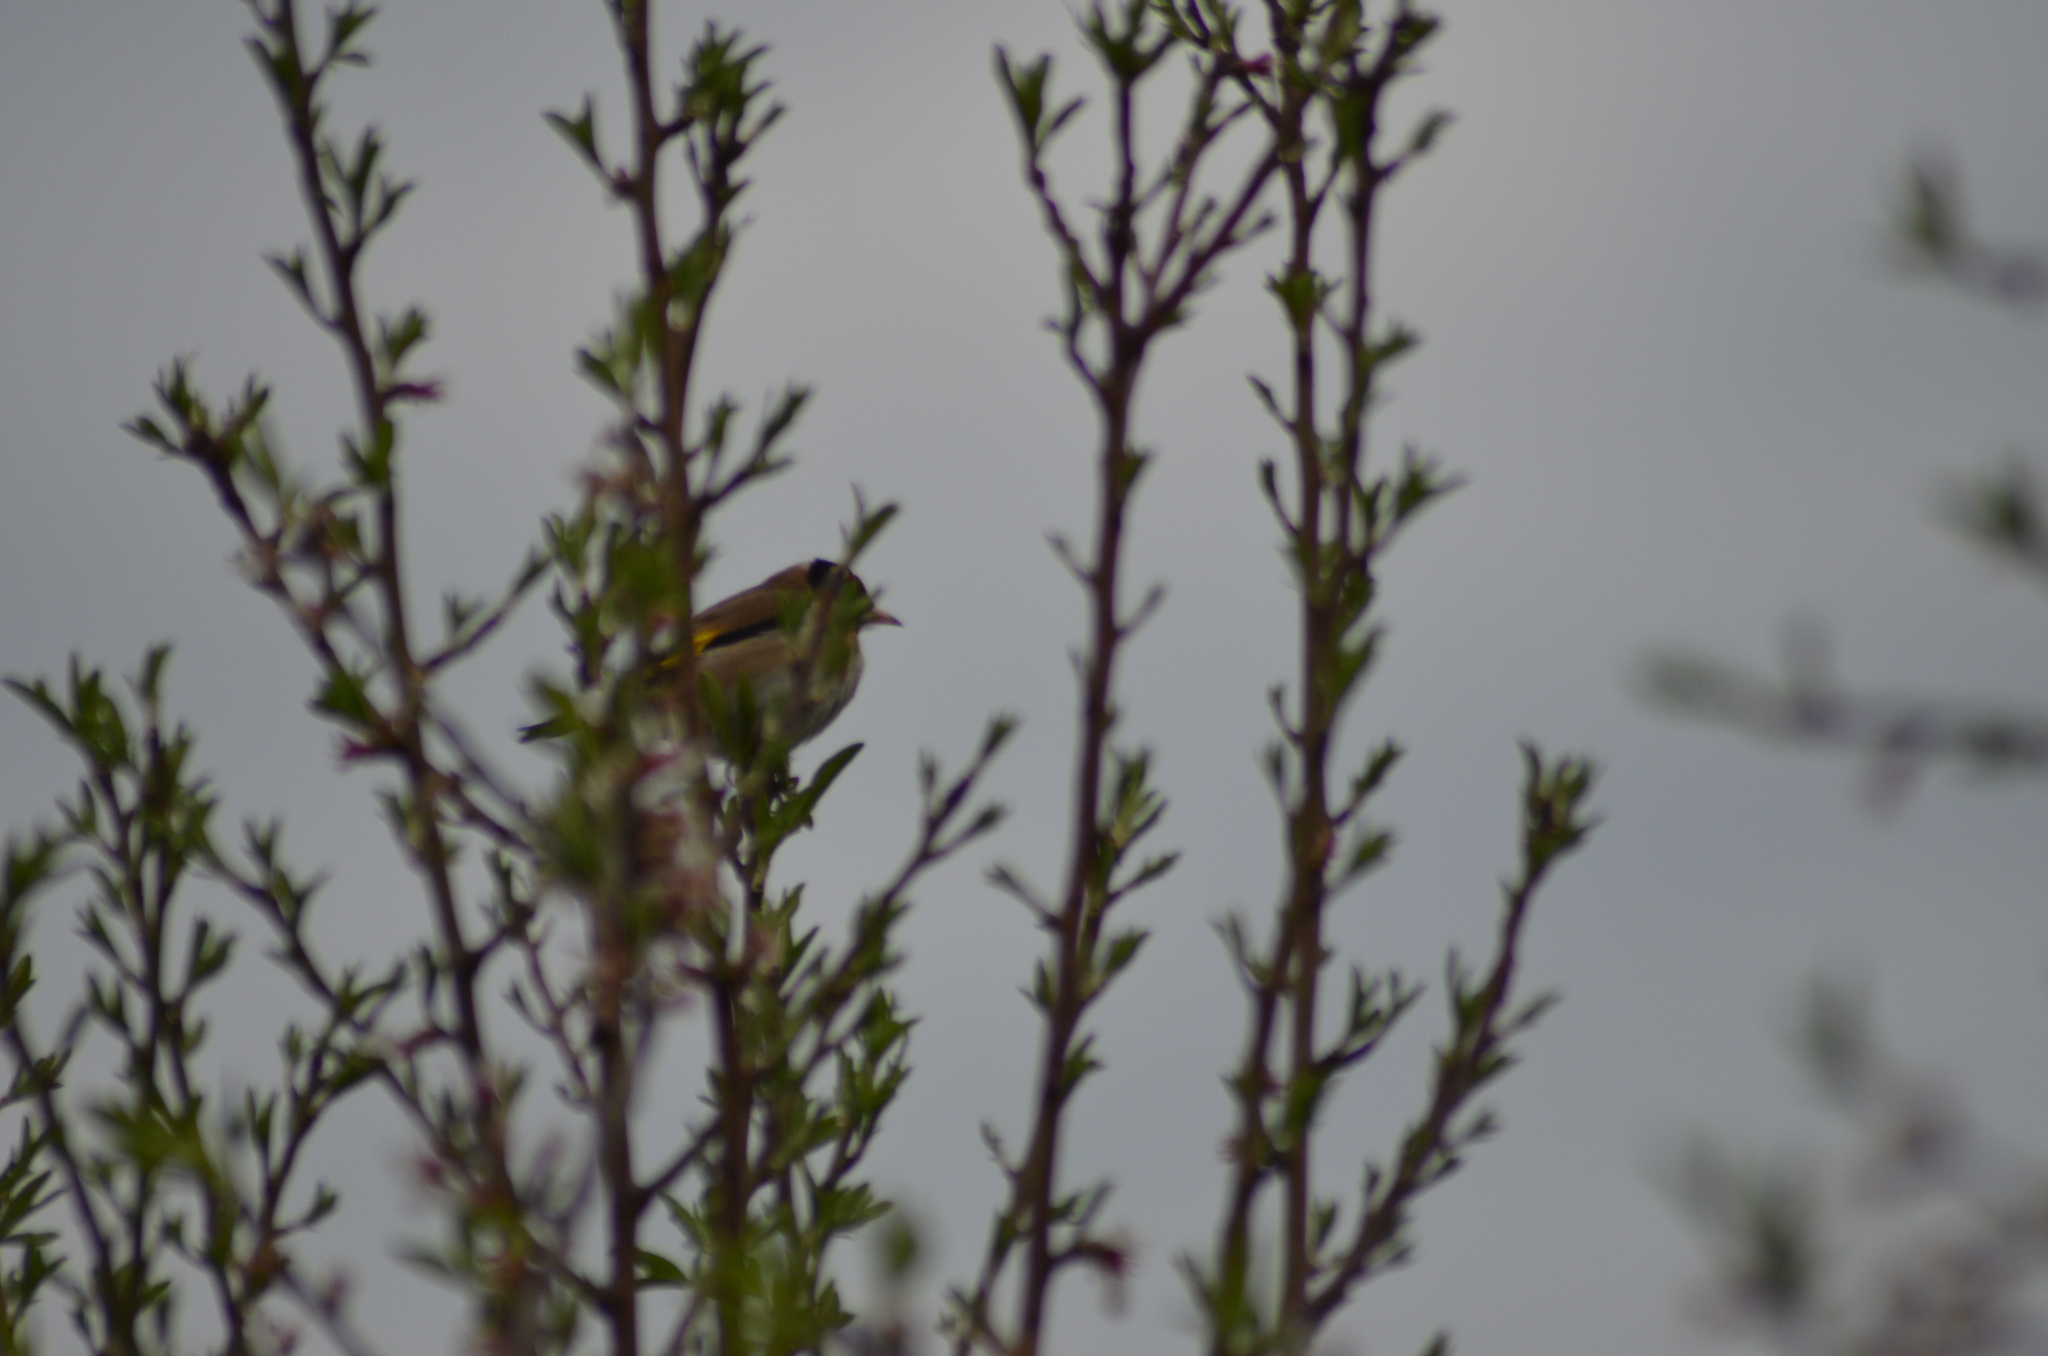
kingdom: Animalia
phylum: Chordata
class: Aves
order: Passeriformes
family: Fringillidae
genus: Carduelis
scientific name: Carduelis carduelis
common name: European goldfinch
